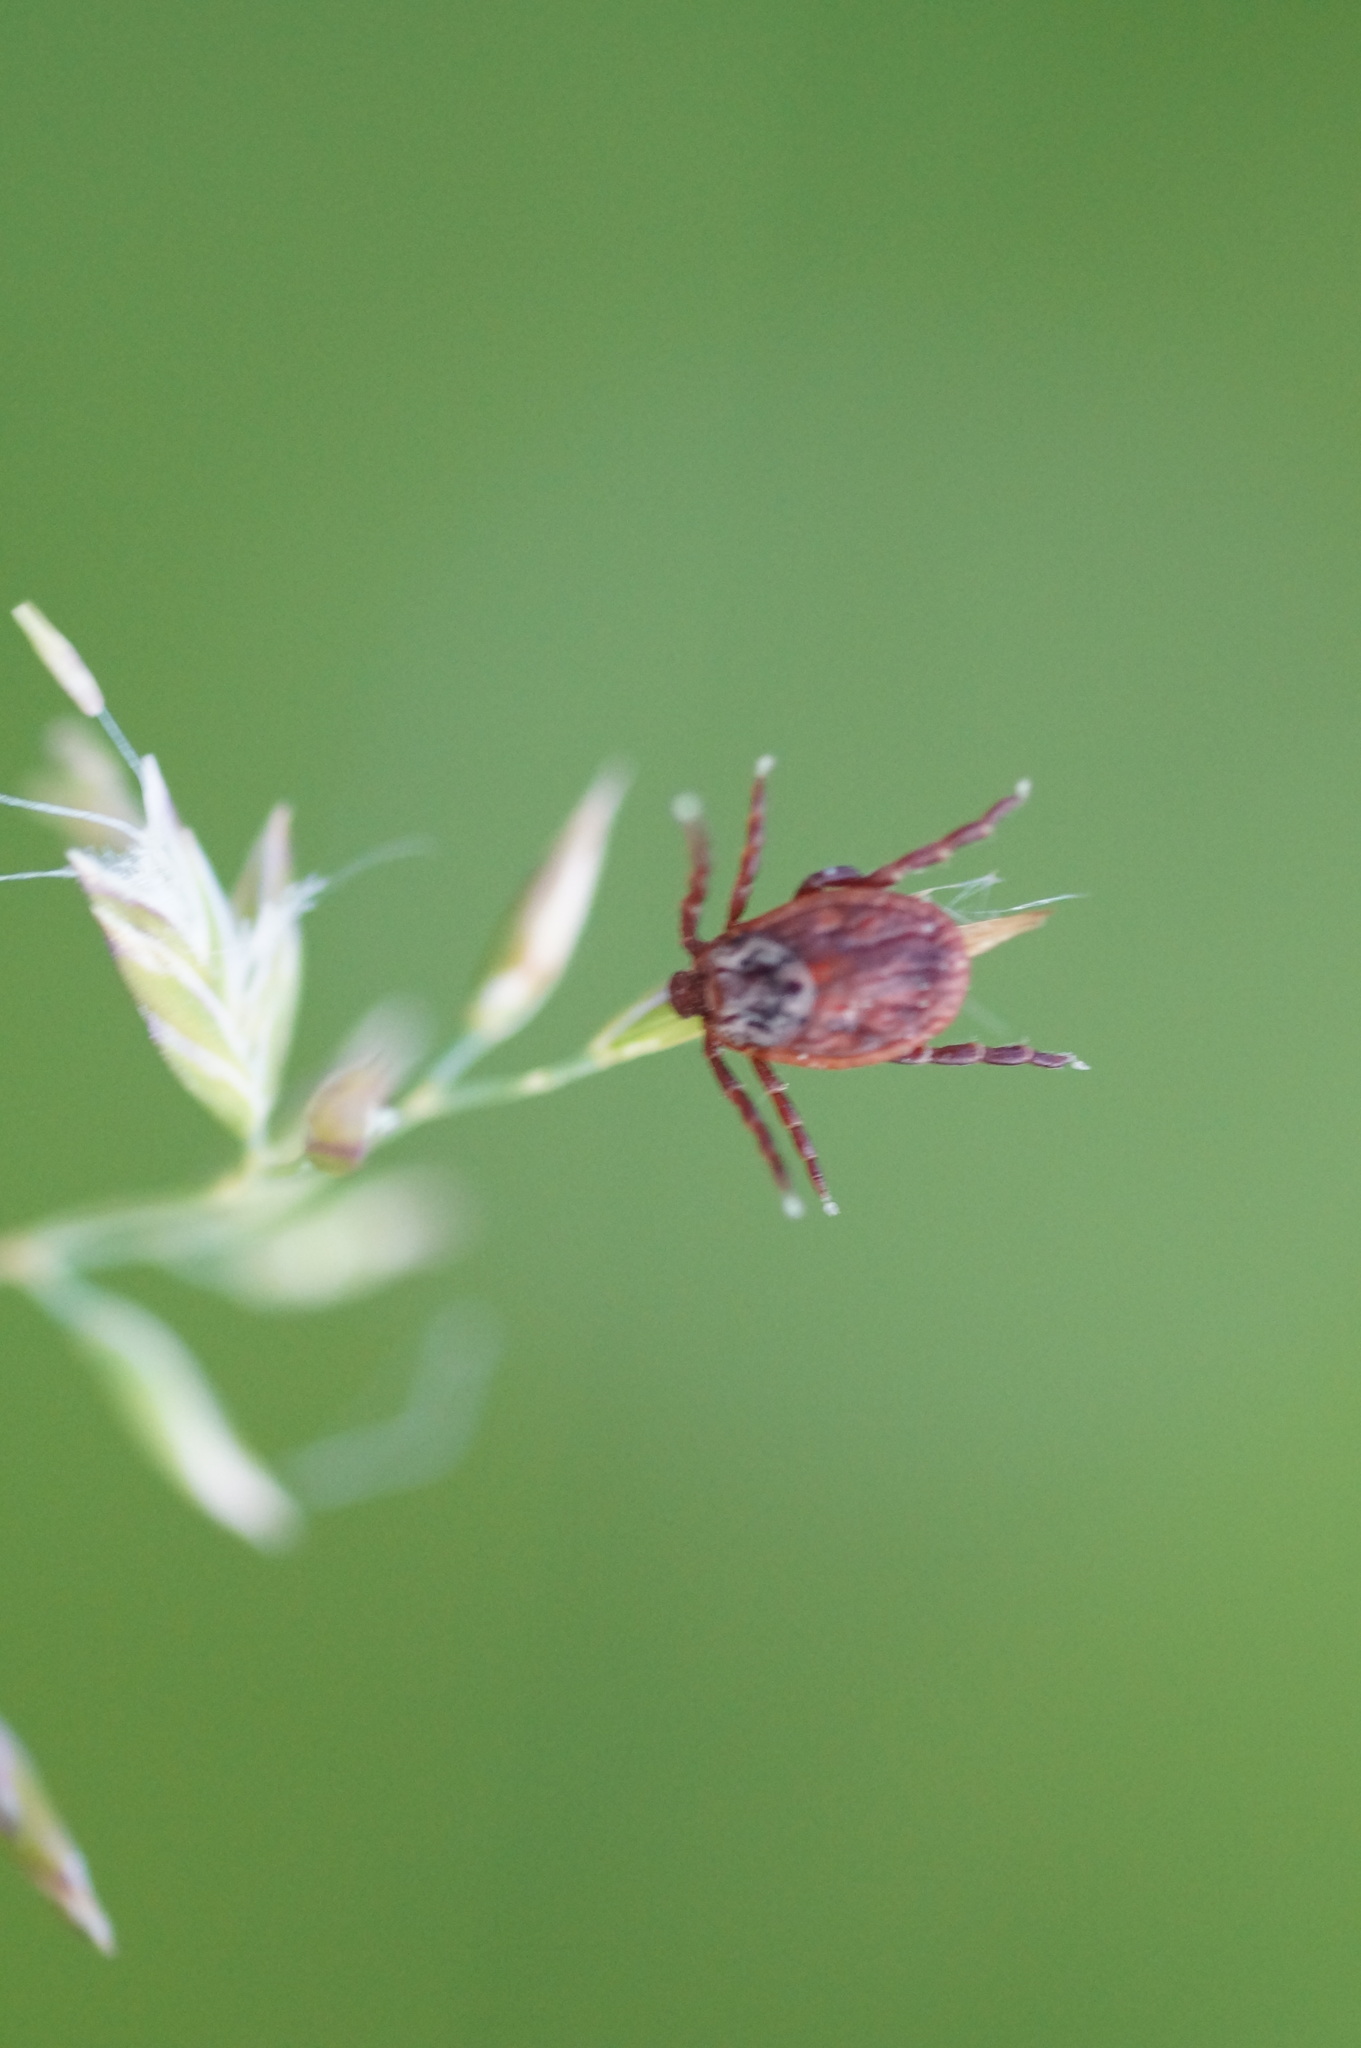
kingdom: Animalia
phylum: Arthropoda
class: Arachnida
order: Ixodida
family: Ixodidae
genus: Dermacentor
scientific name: Dermacentor reticulatus
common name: Ornate cow tick
